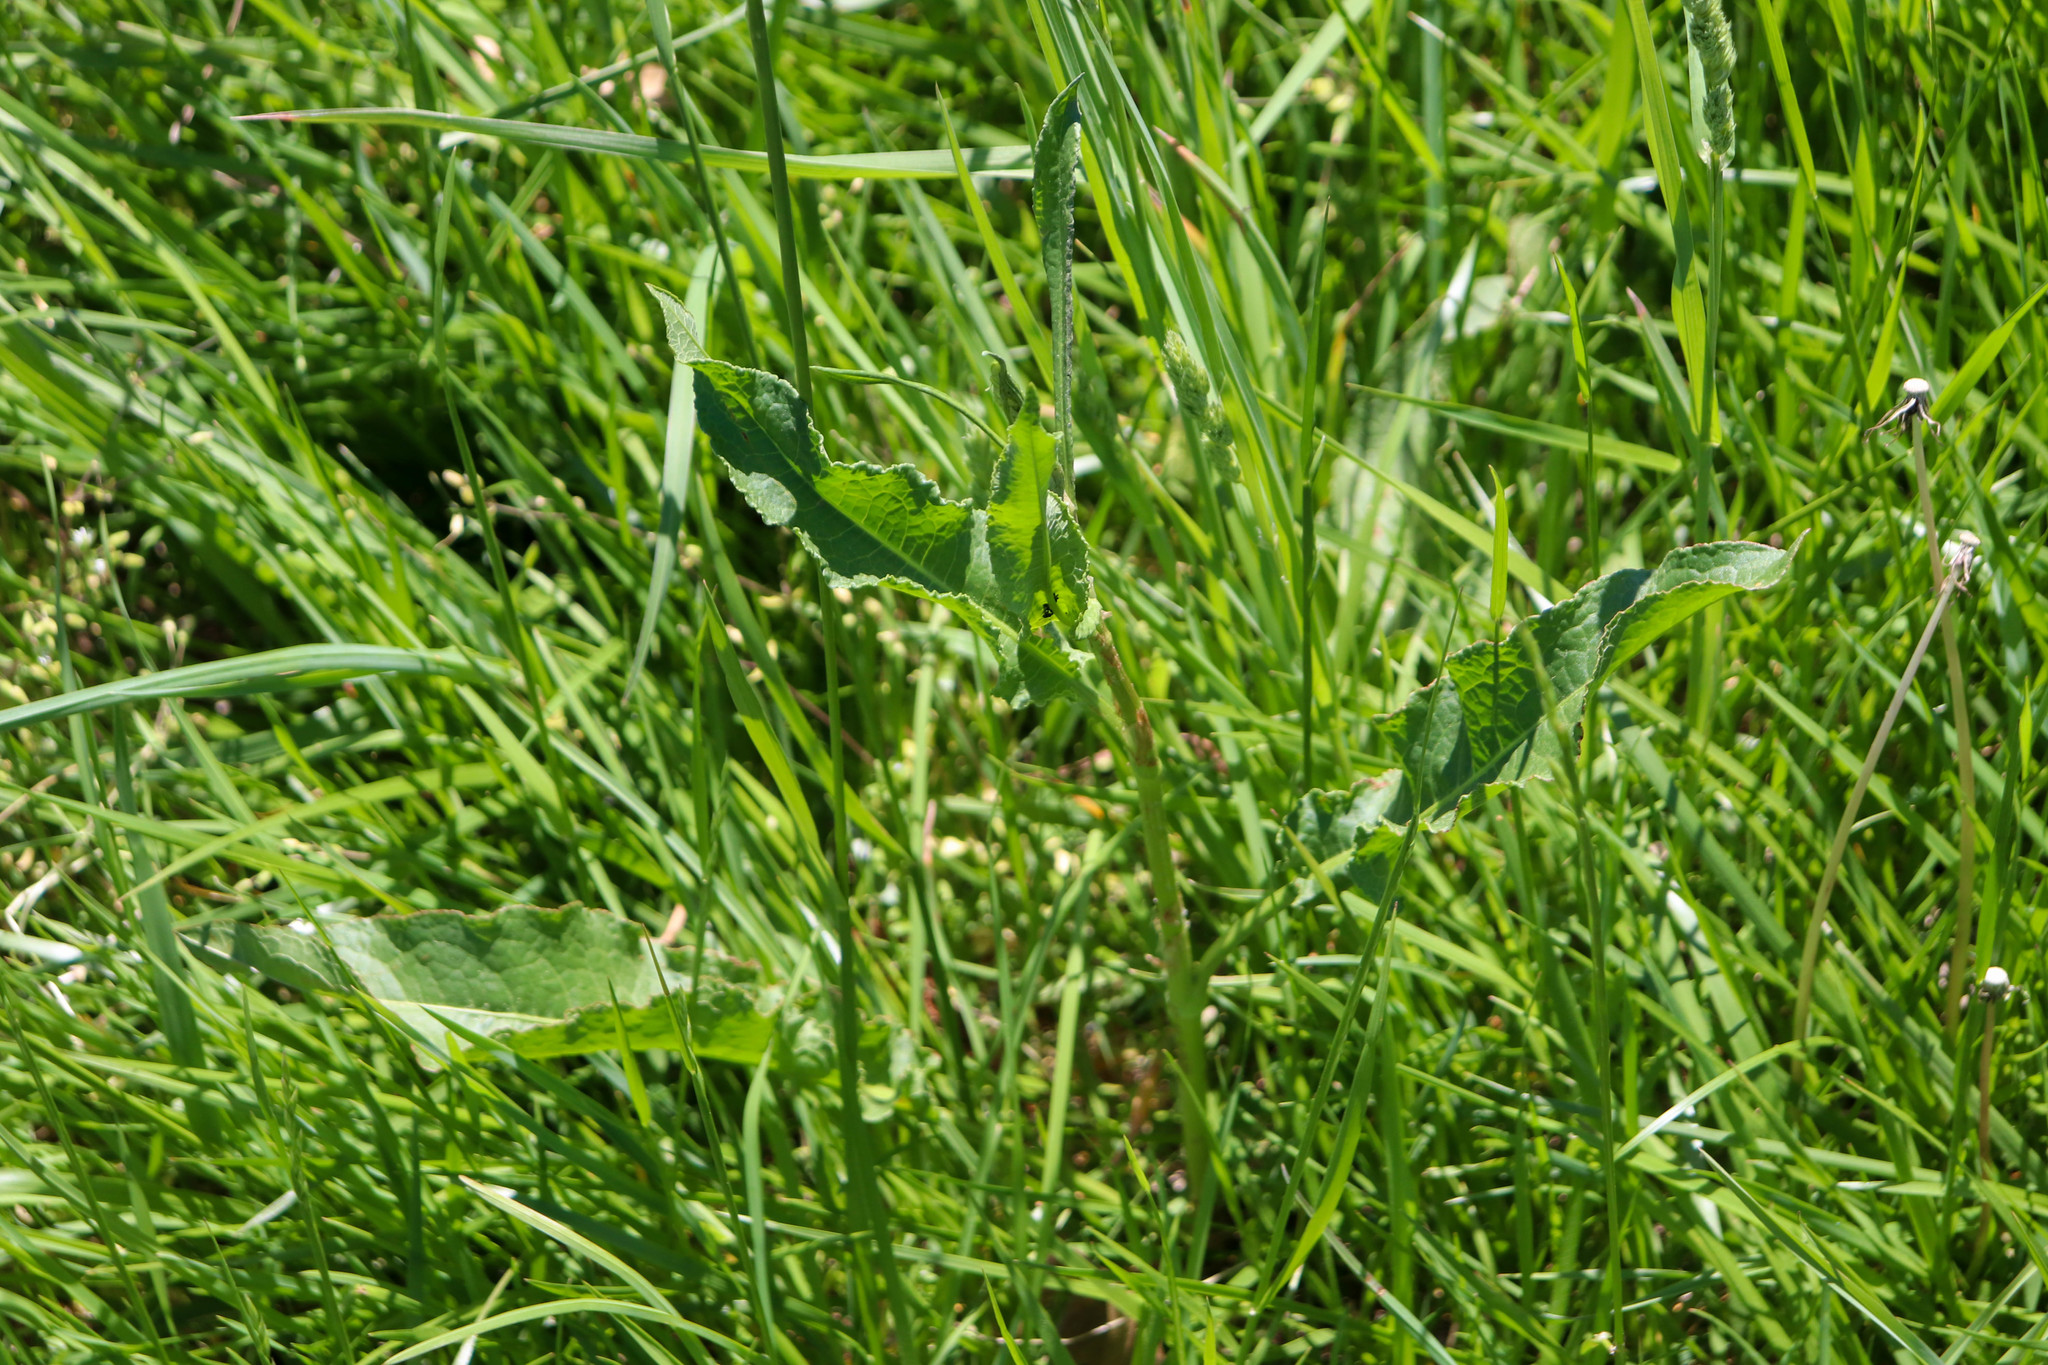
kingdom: Plantae
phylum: Tracheophyta
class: Magnoliopsida
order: Caryophyllales
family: Polygonaceae
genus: Rumex
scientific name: Rumex crispus
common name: Curled dock
